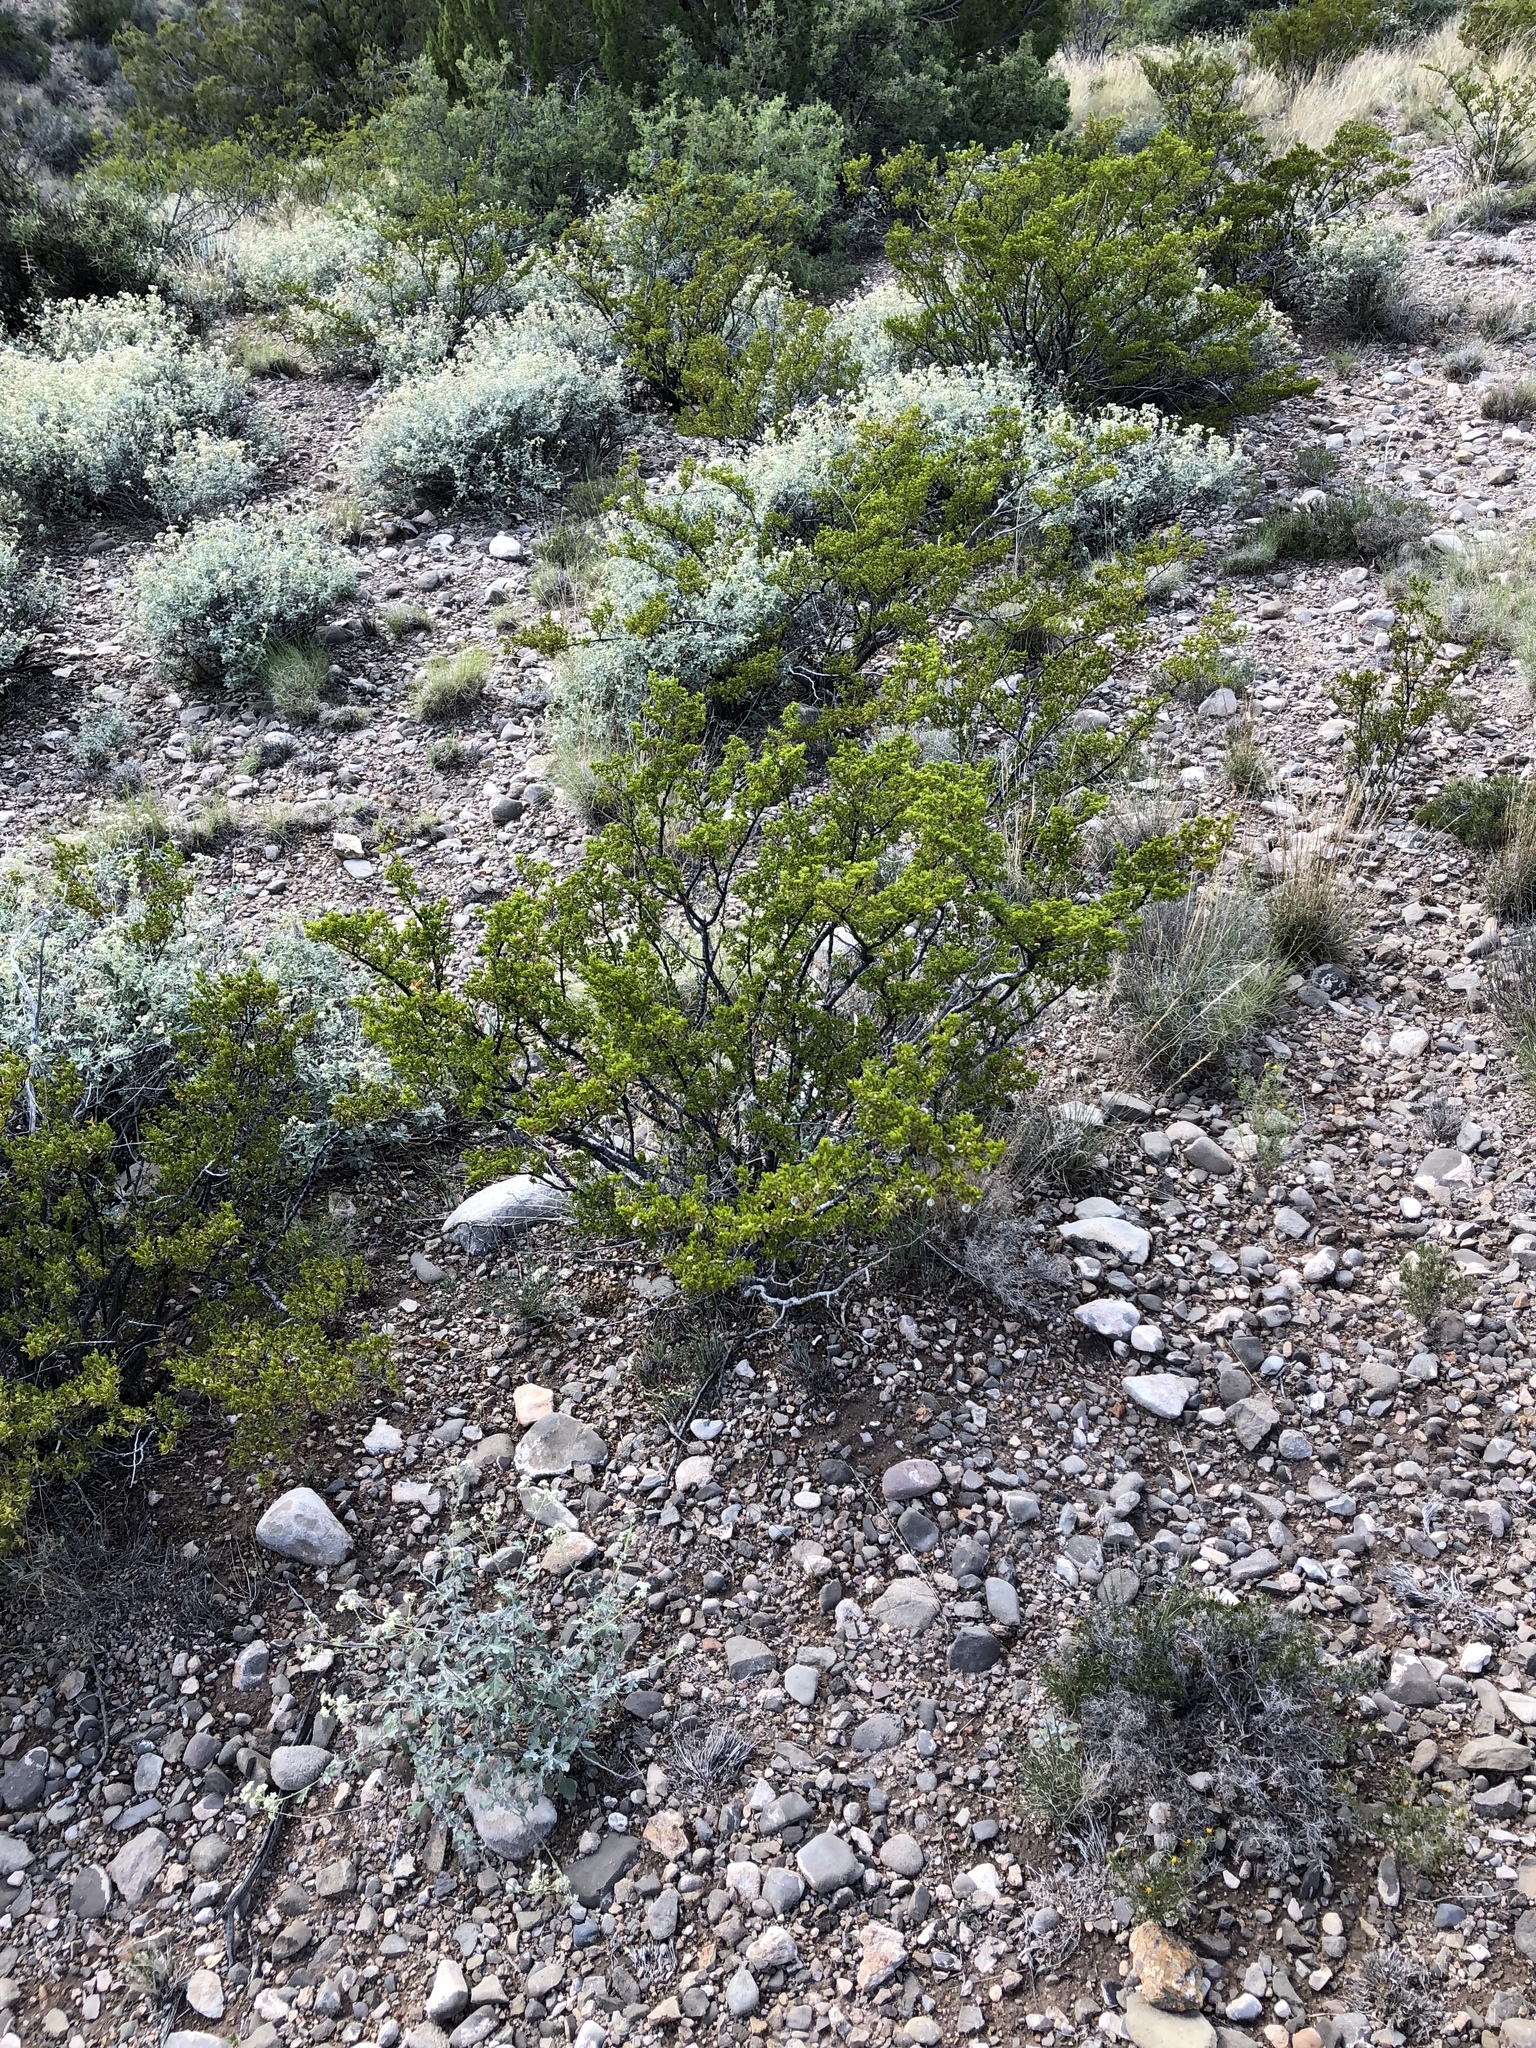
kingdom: Plantae
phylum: Tracheophyta
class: Magnoliopsida
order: Zygophyllales
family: Zygophyllaceae
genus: Larrea
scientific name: Larrea tridentata
